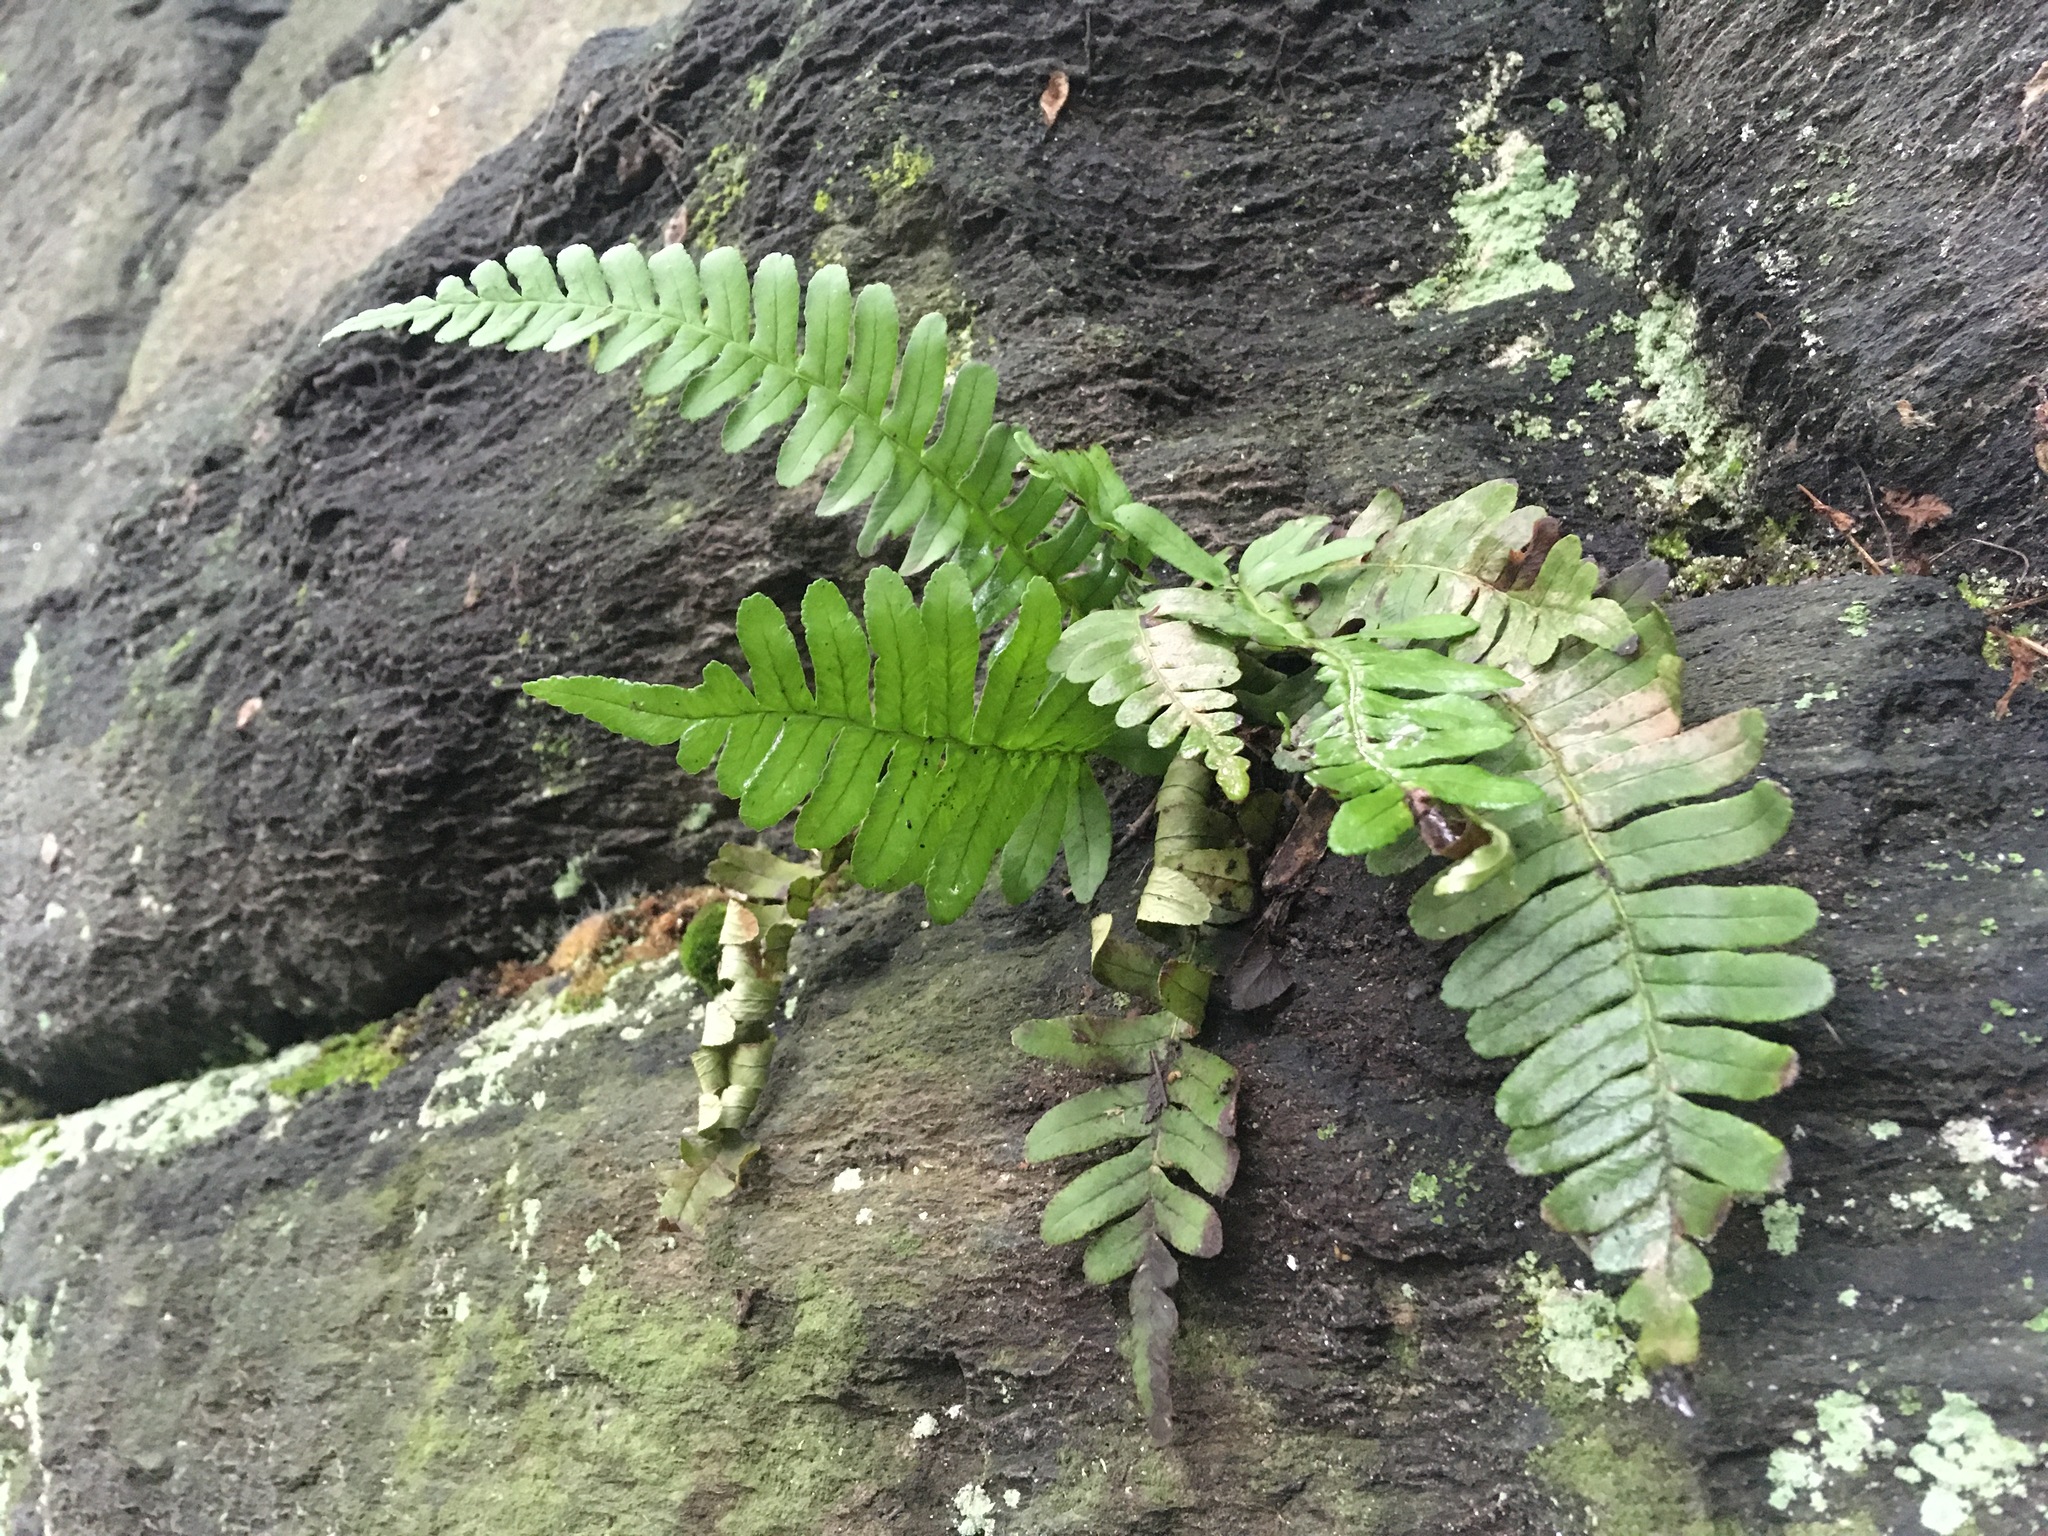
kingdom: Plantae
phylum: Tracheophyta
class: Polypodiopsida
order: Polypodiales
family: Polypodiaceae
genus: Polypodium
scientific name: Polypodium virginianum
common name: American wall fern
